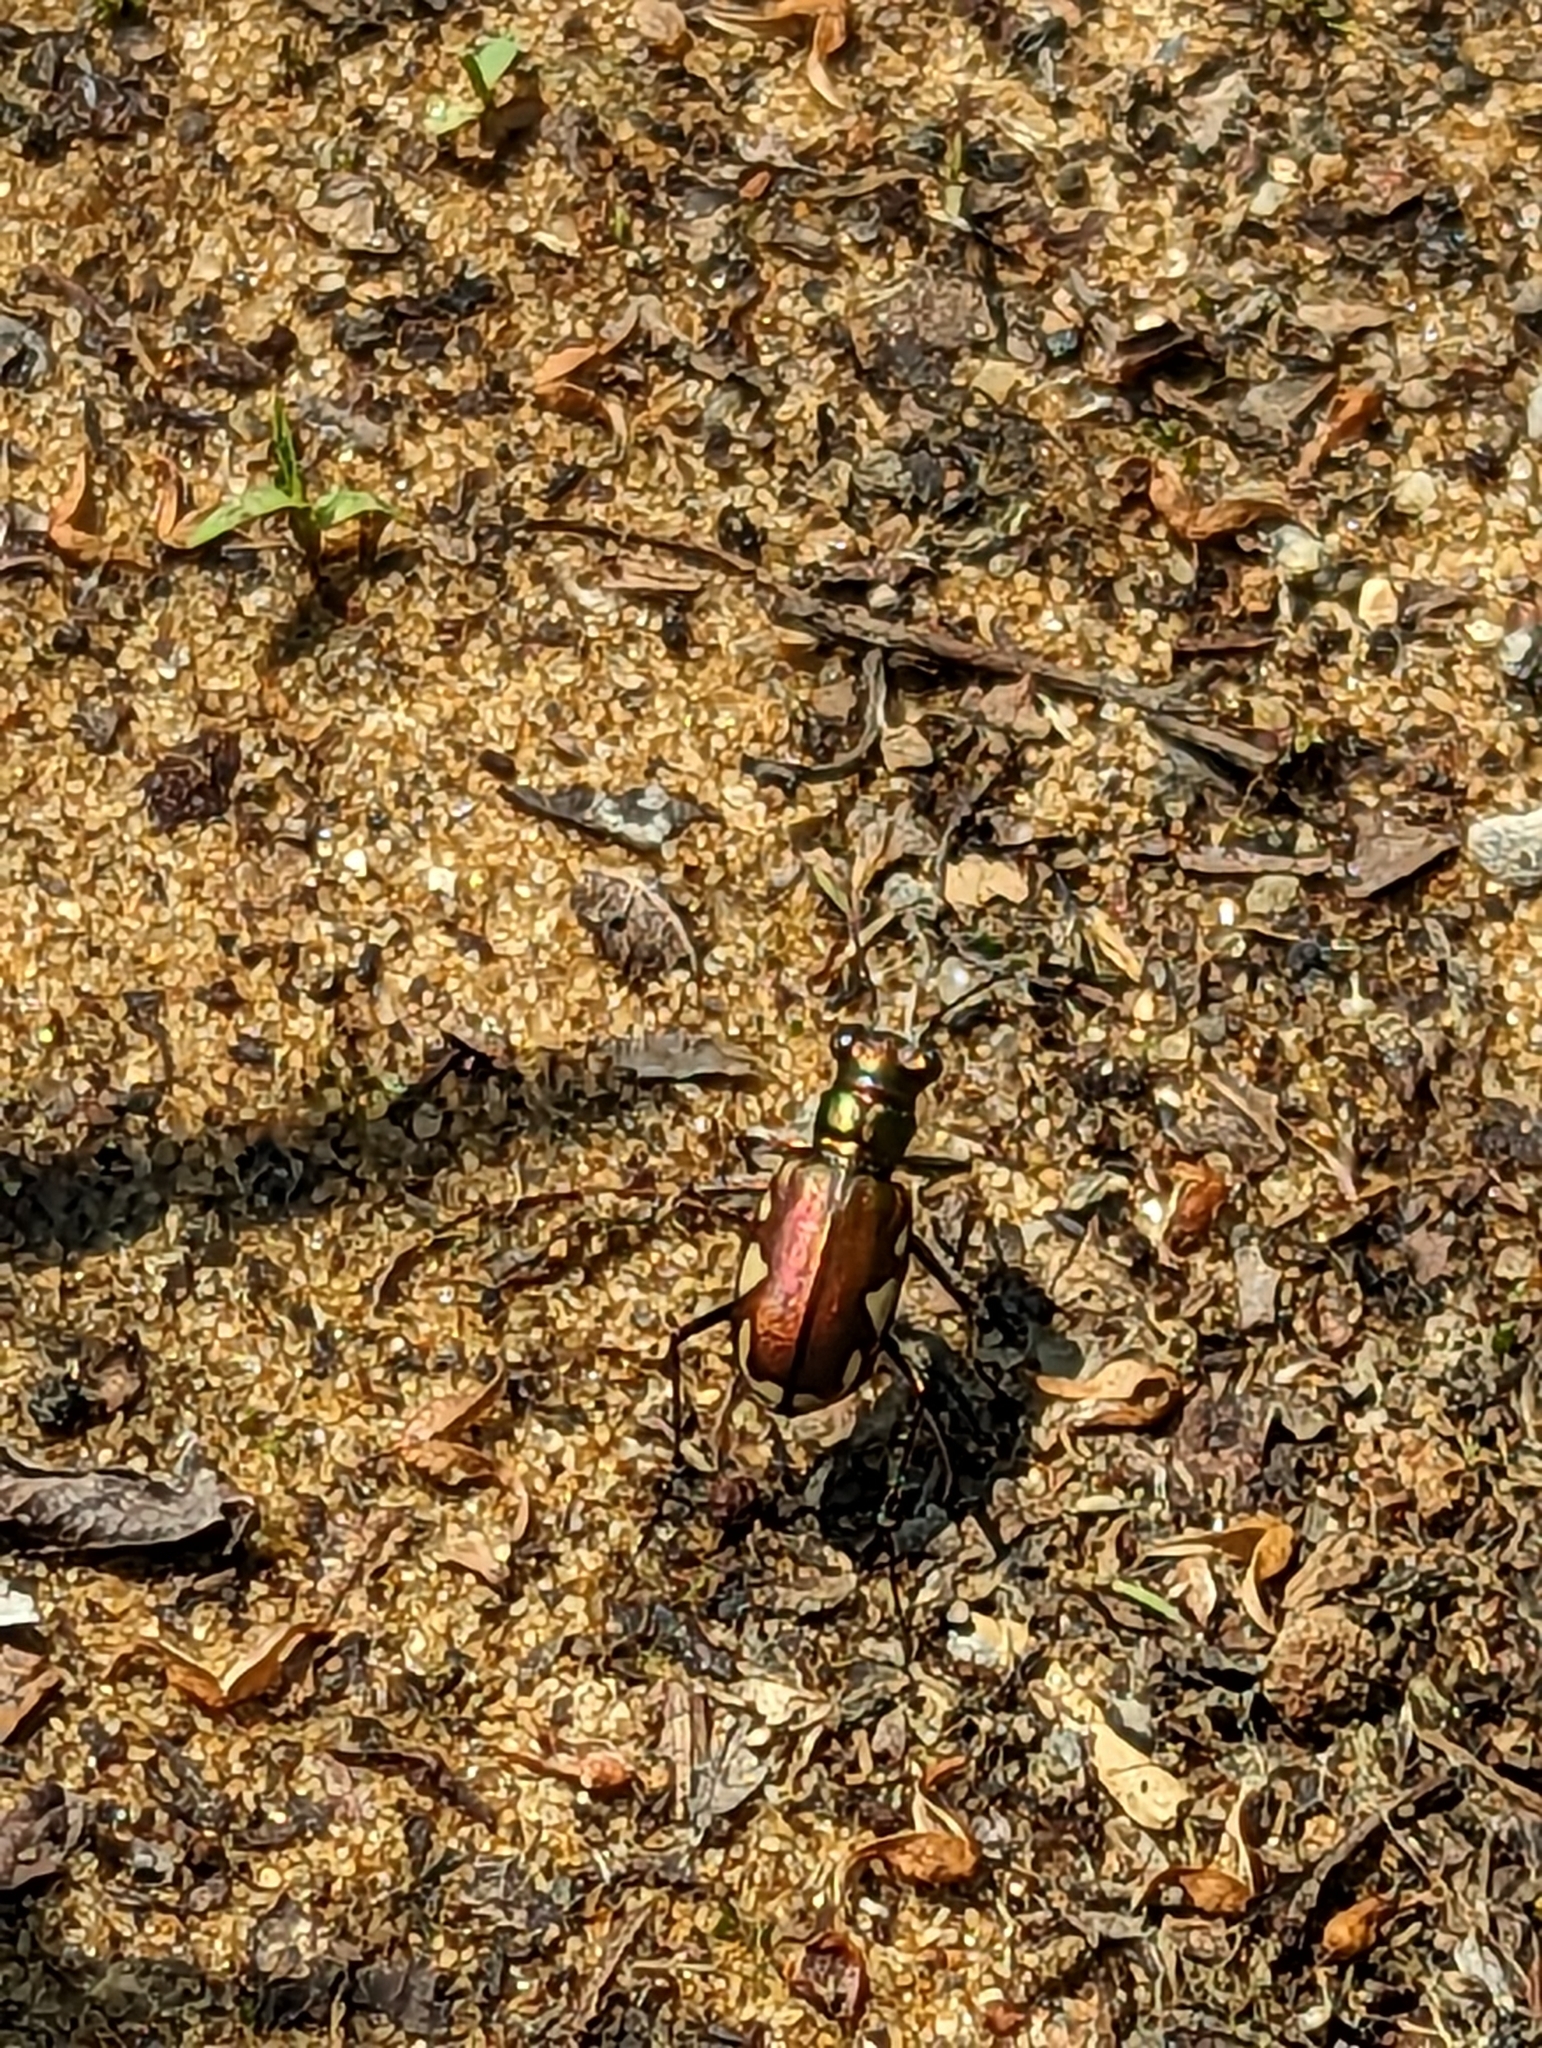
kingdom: Animalia
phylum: Arthropoda
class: Insecta
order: Coleoptera
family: Carabidae
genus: Cicindela
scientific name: Cicindela scutellaris
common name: Festive tiger beetle
